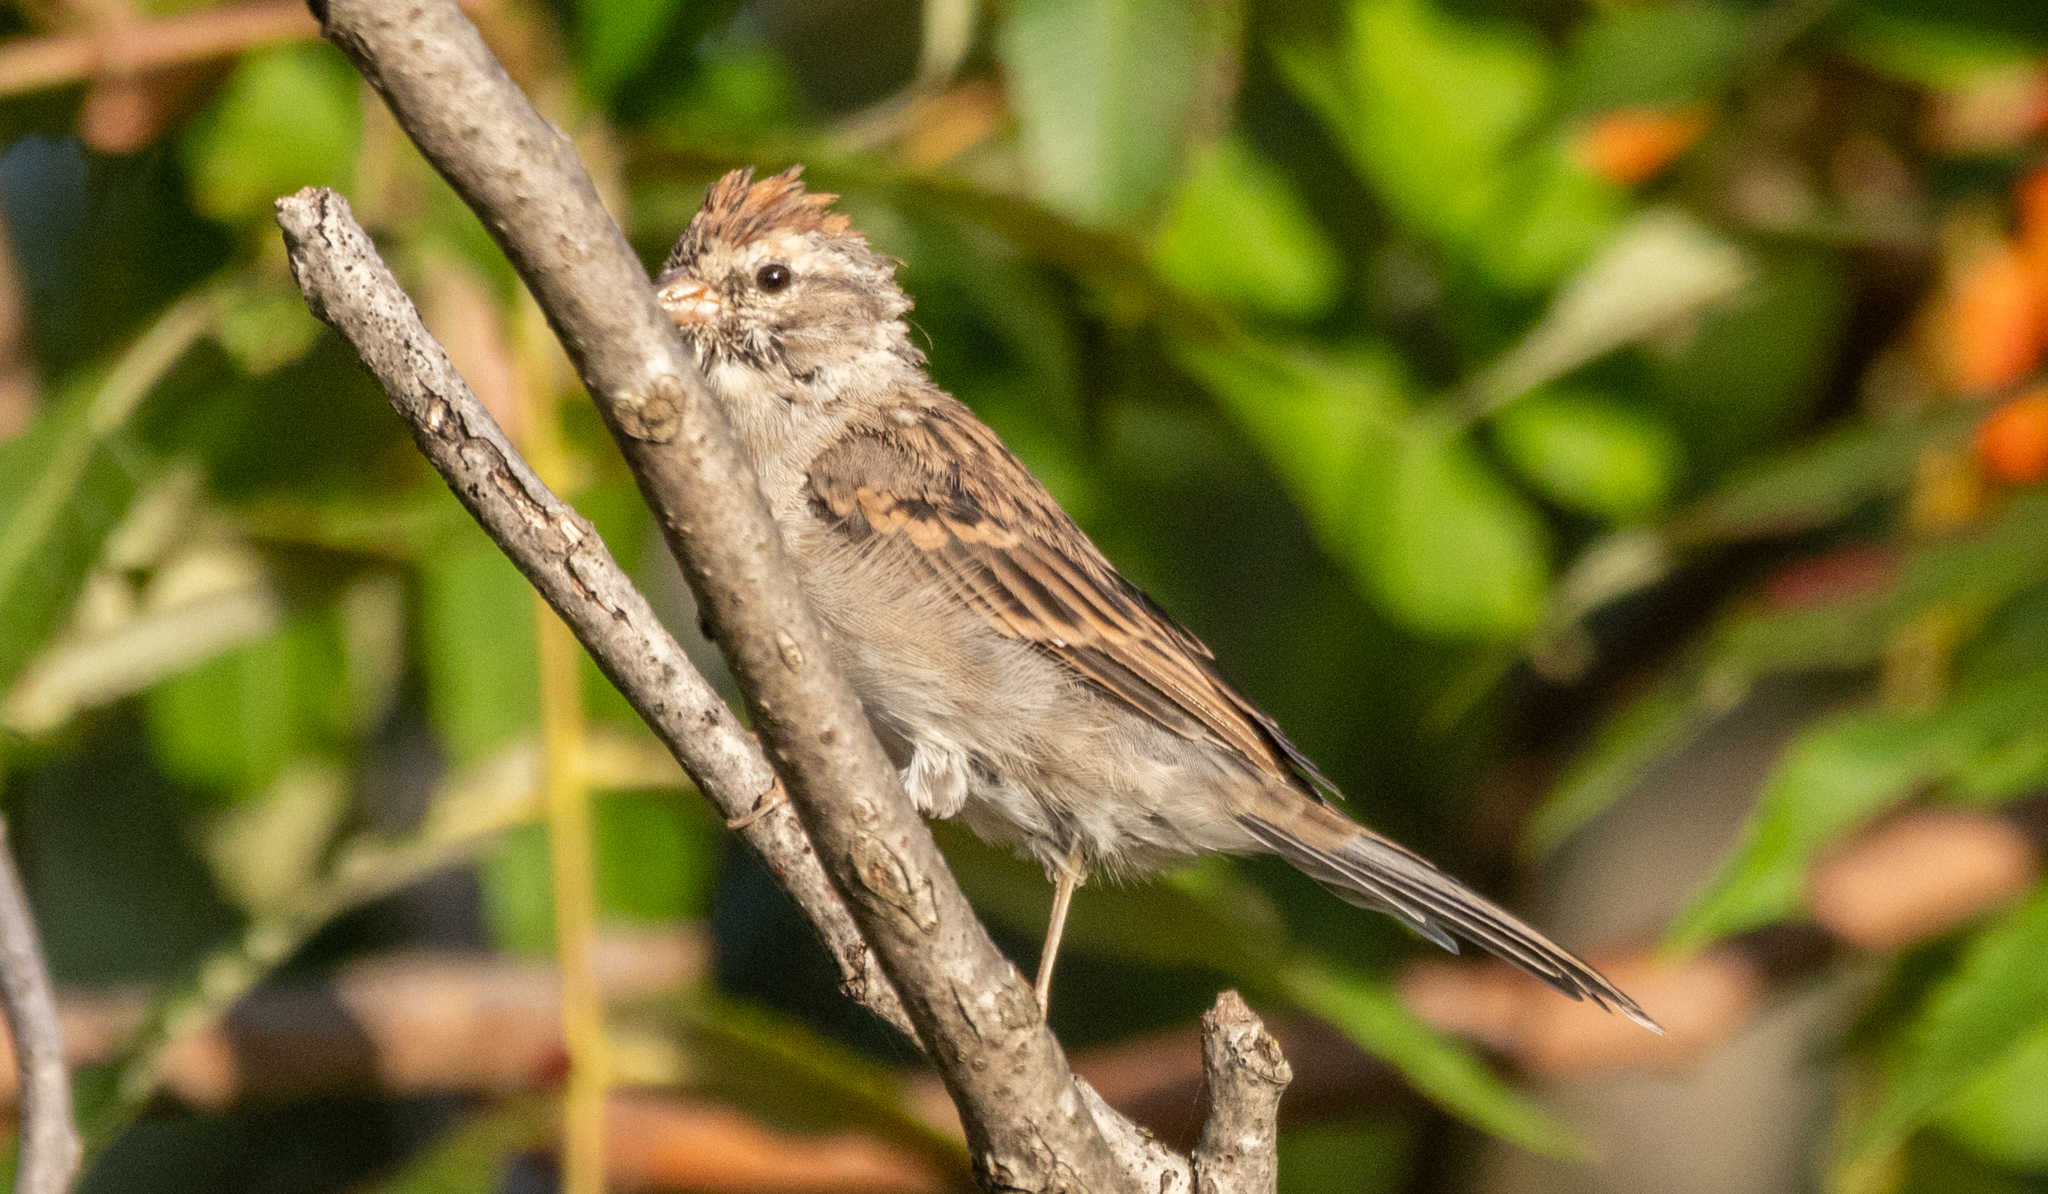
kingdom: Animalia
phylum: Chordata
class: Aves
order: Passeriformes
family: Passerellidae
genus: Spizella
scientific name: Spizella passerina
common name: Chipping sparrow
